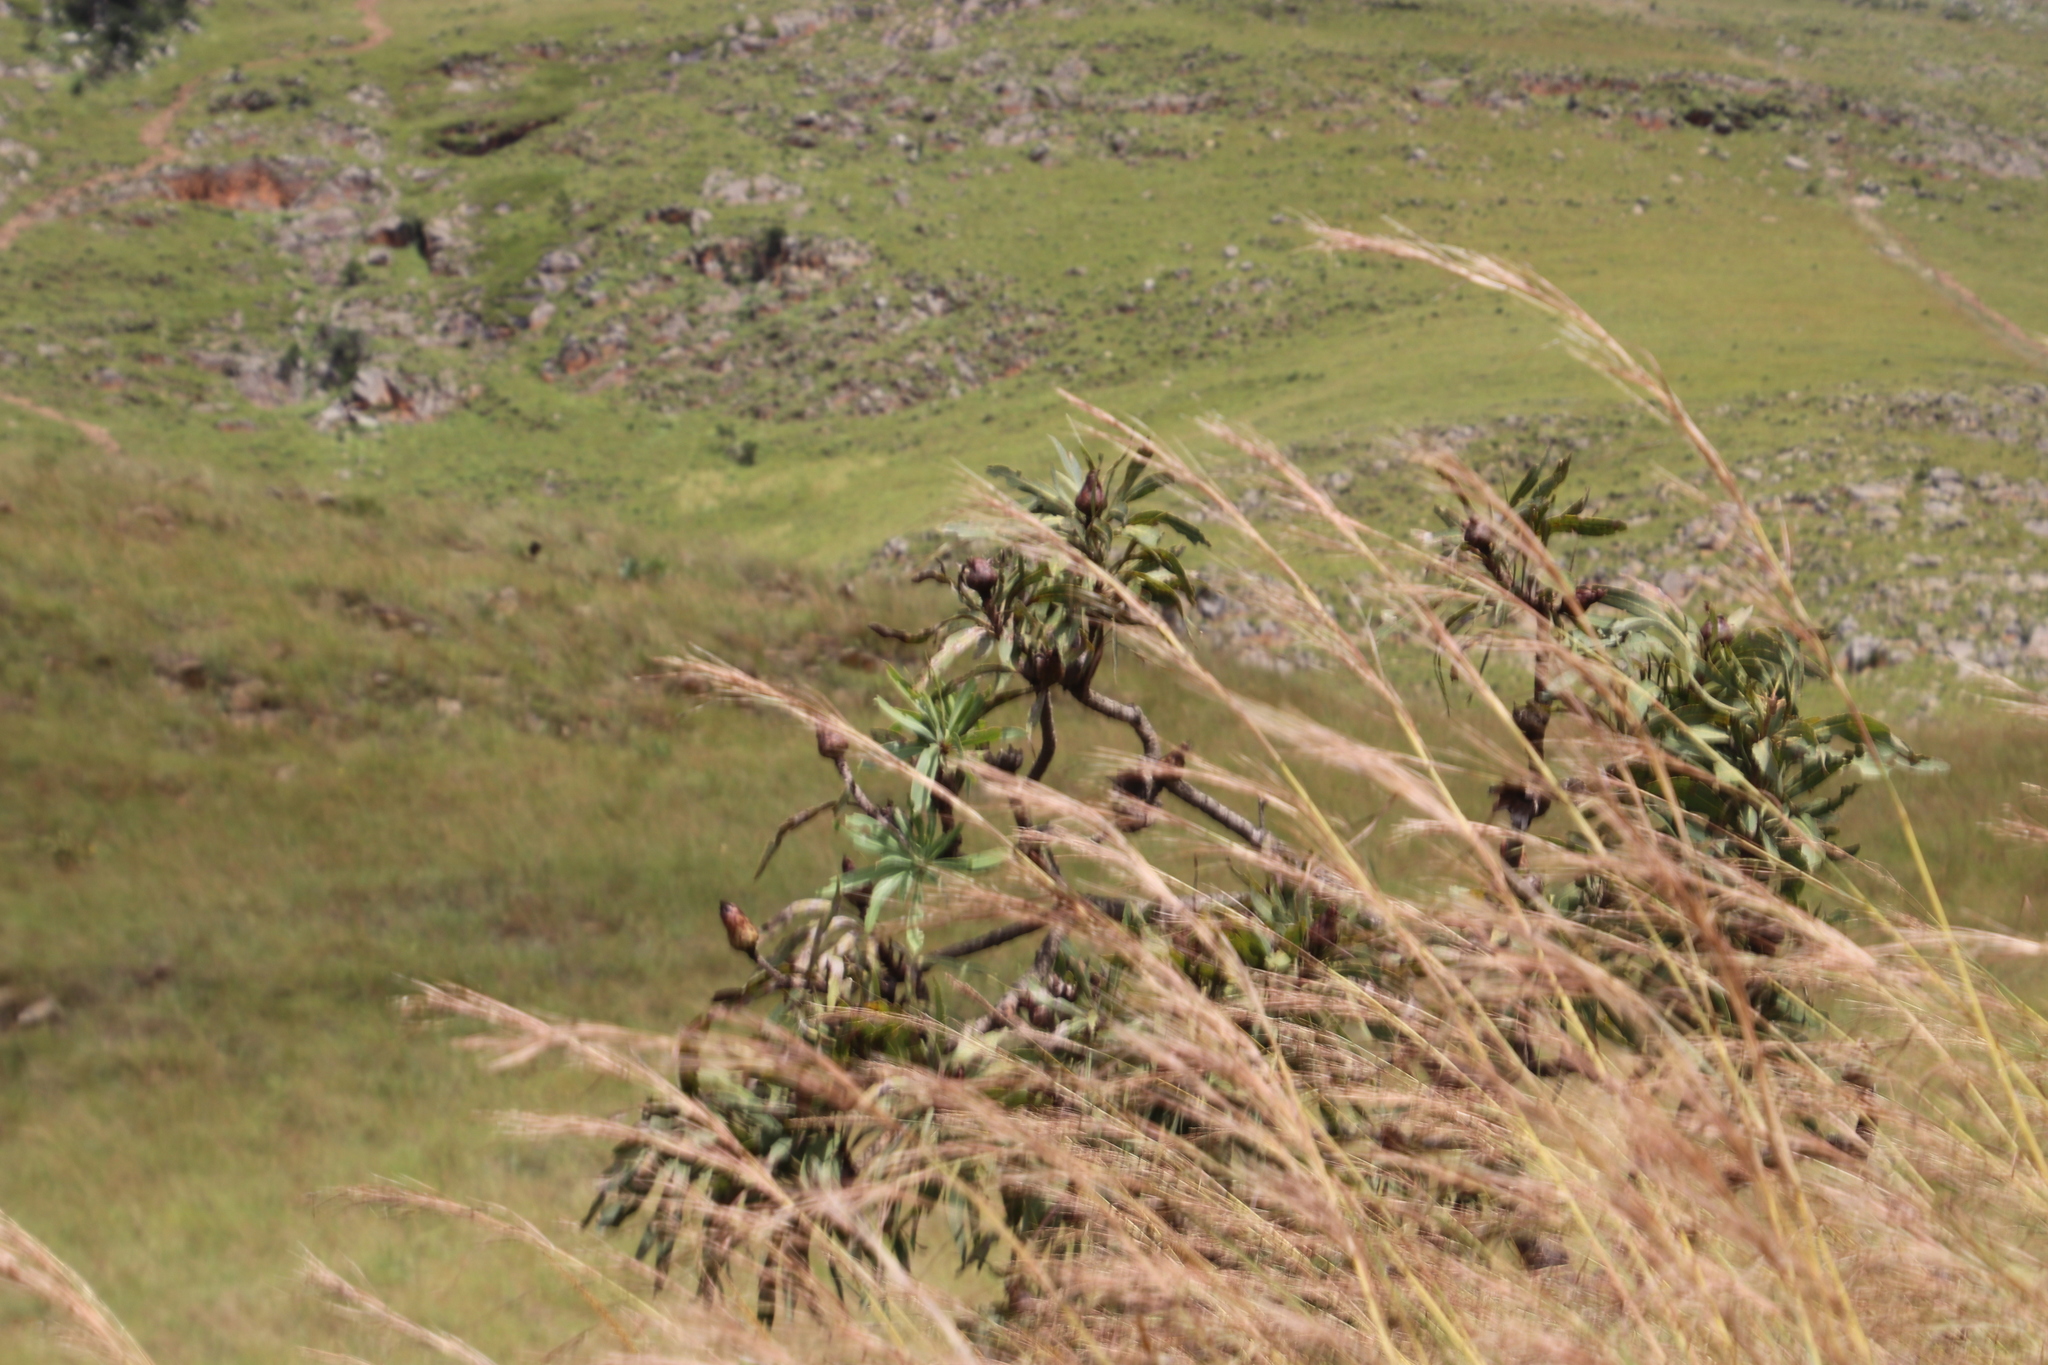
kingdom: Plantae
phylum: Tracheophyta
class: Magnoliopsida
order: Proteales
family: Proteaceae
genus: Protea
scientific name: Protea caffra
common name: Common sugarbush
